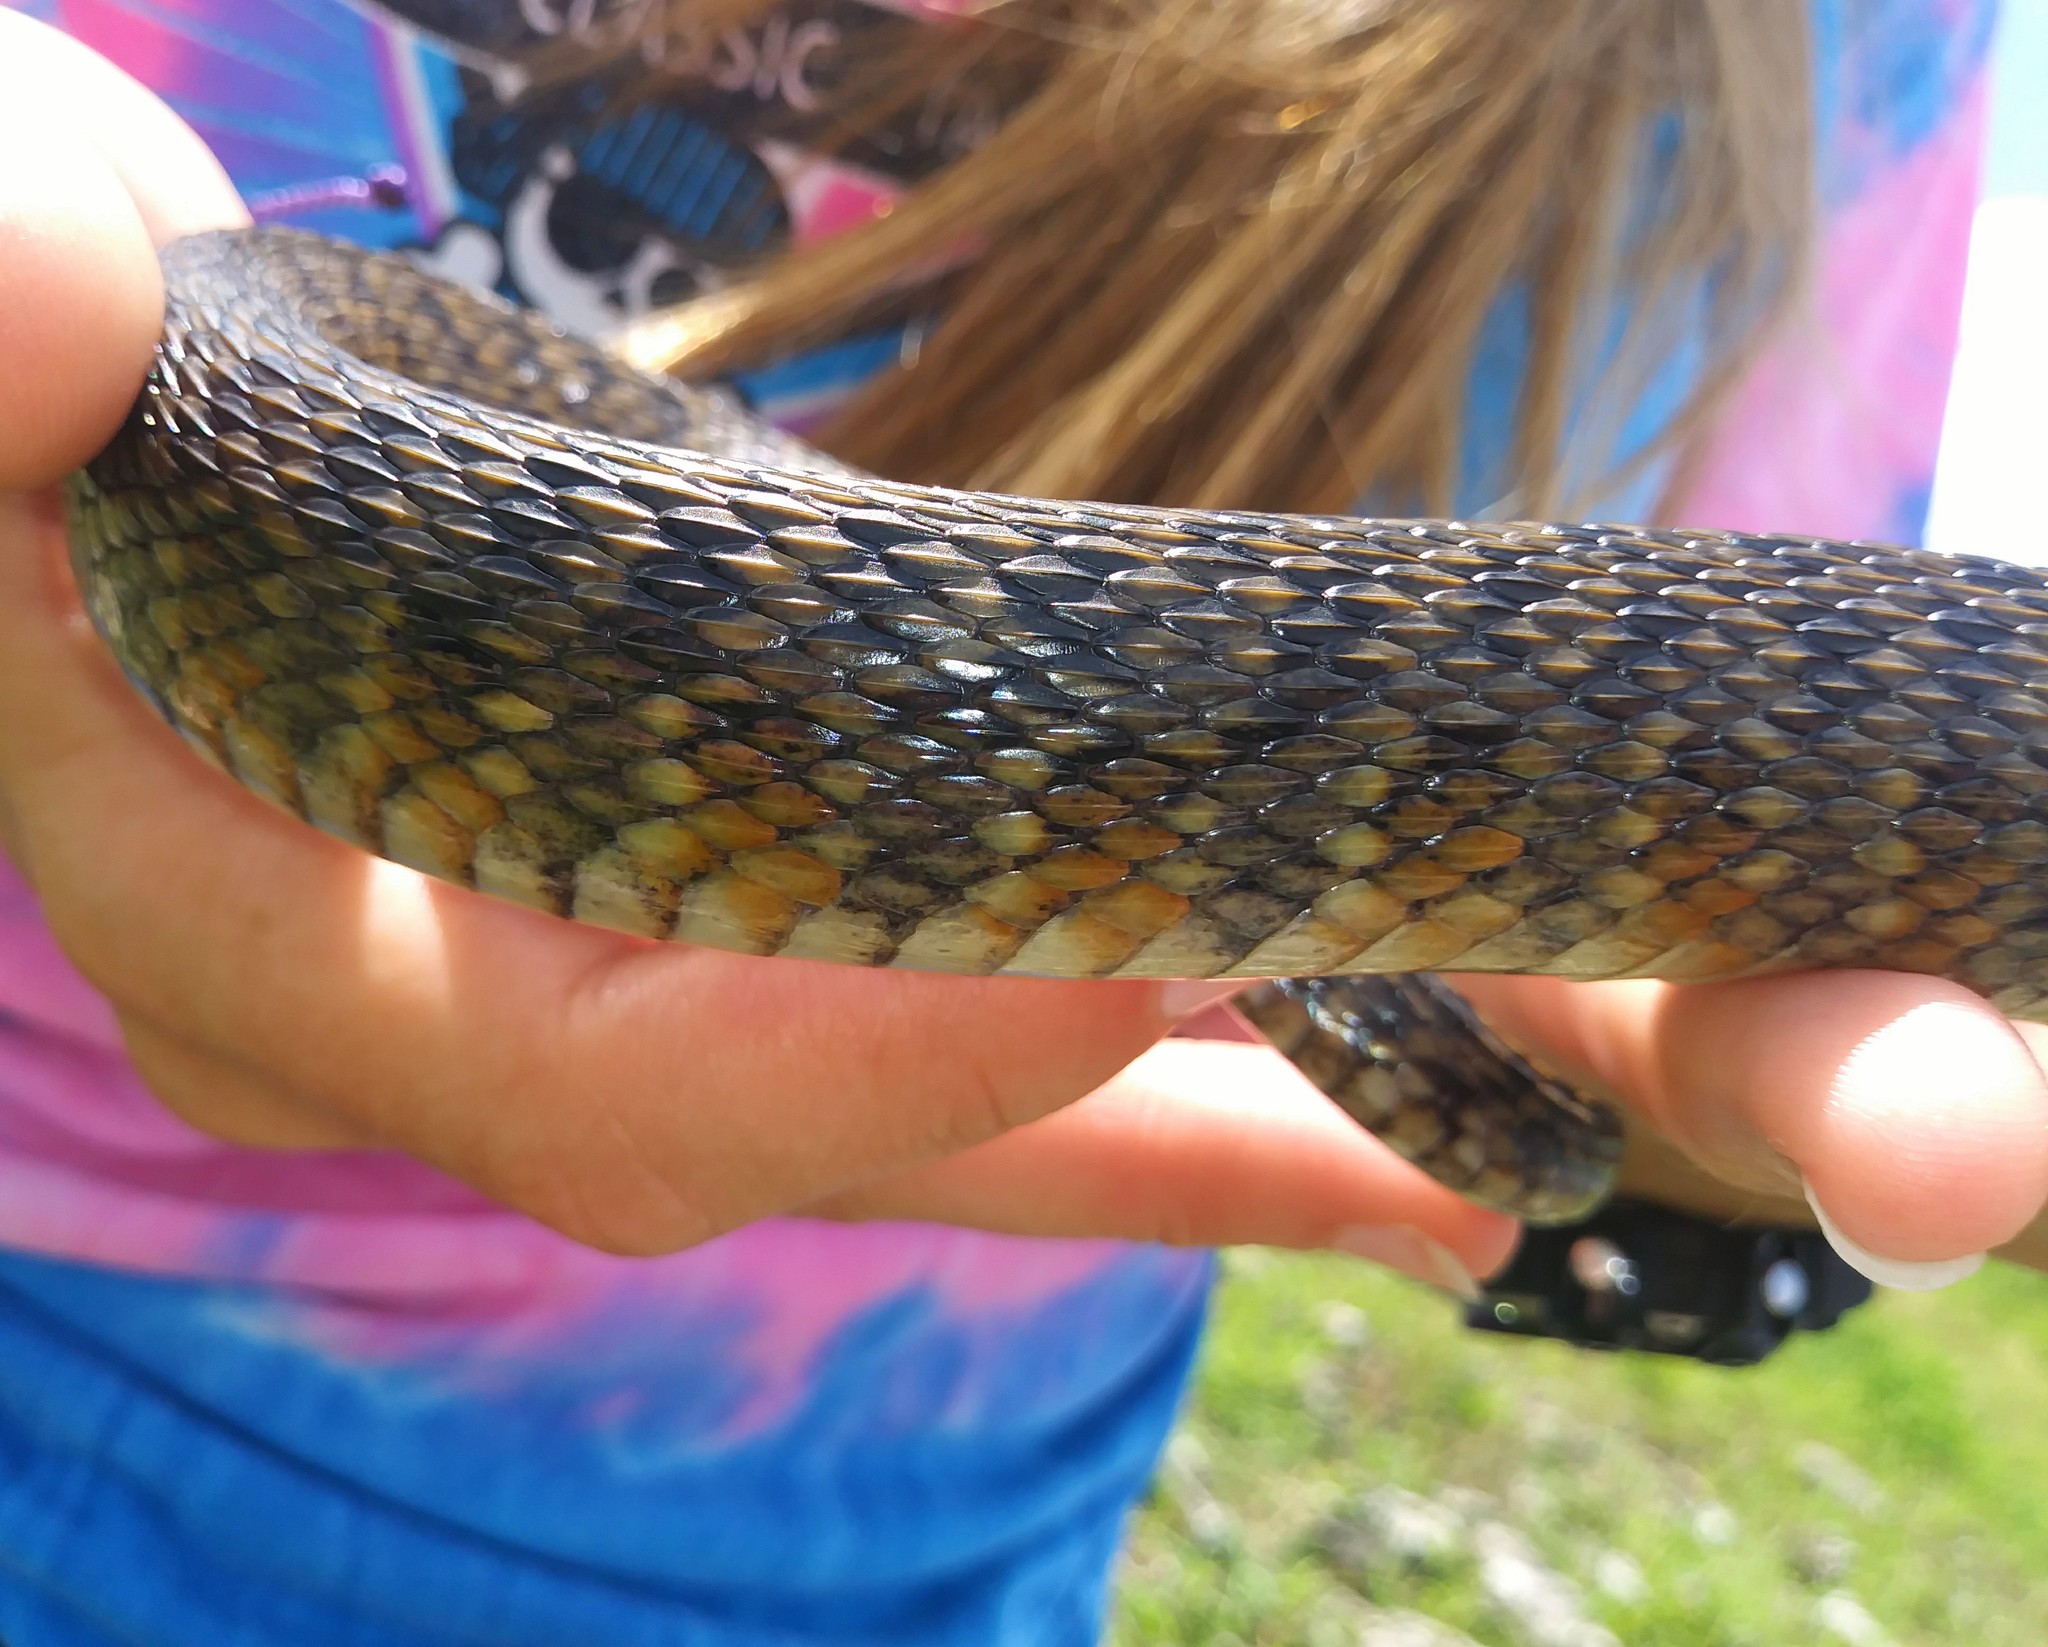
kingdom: Animalia
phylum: Chordata
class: Squamata
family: Colubridae
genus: Nerodia
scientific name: Nerodia floridana
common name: Florida green watersnake
